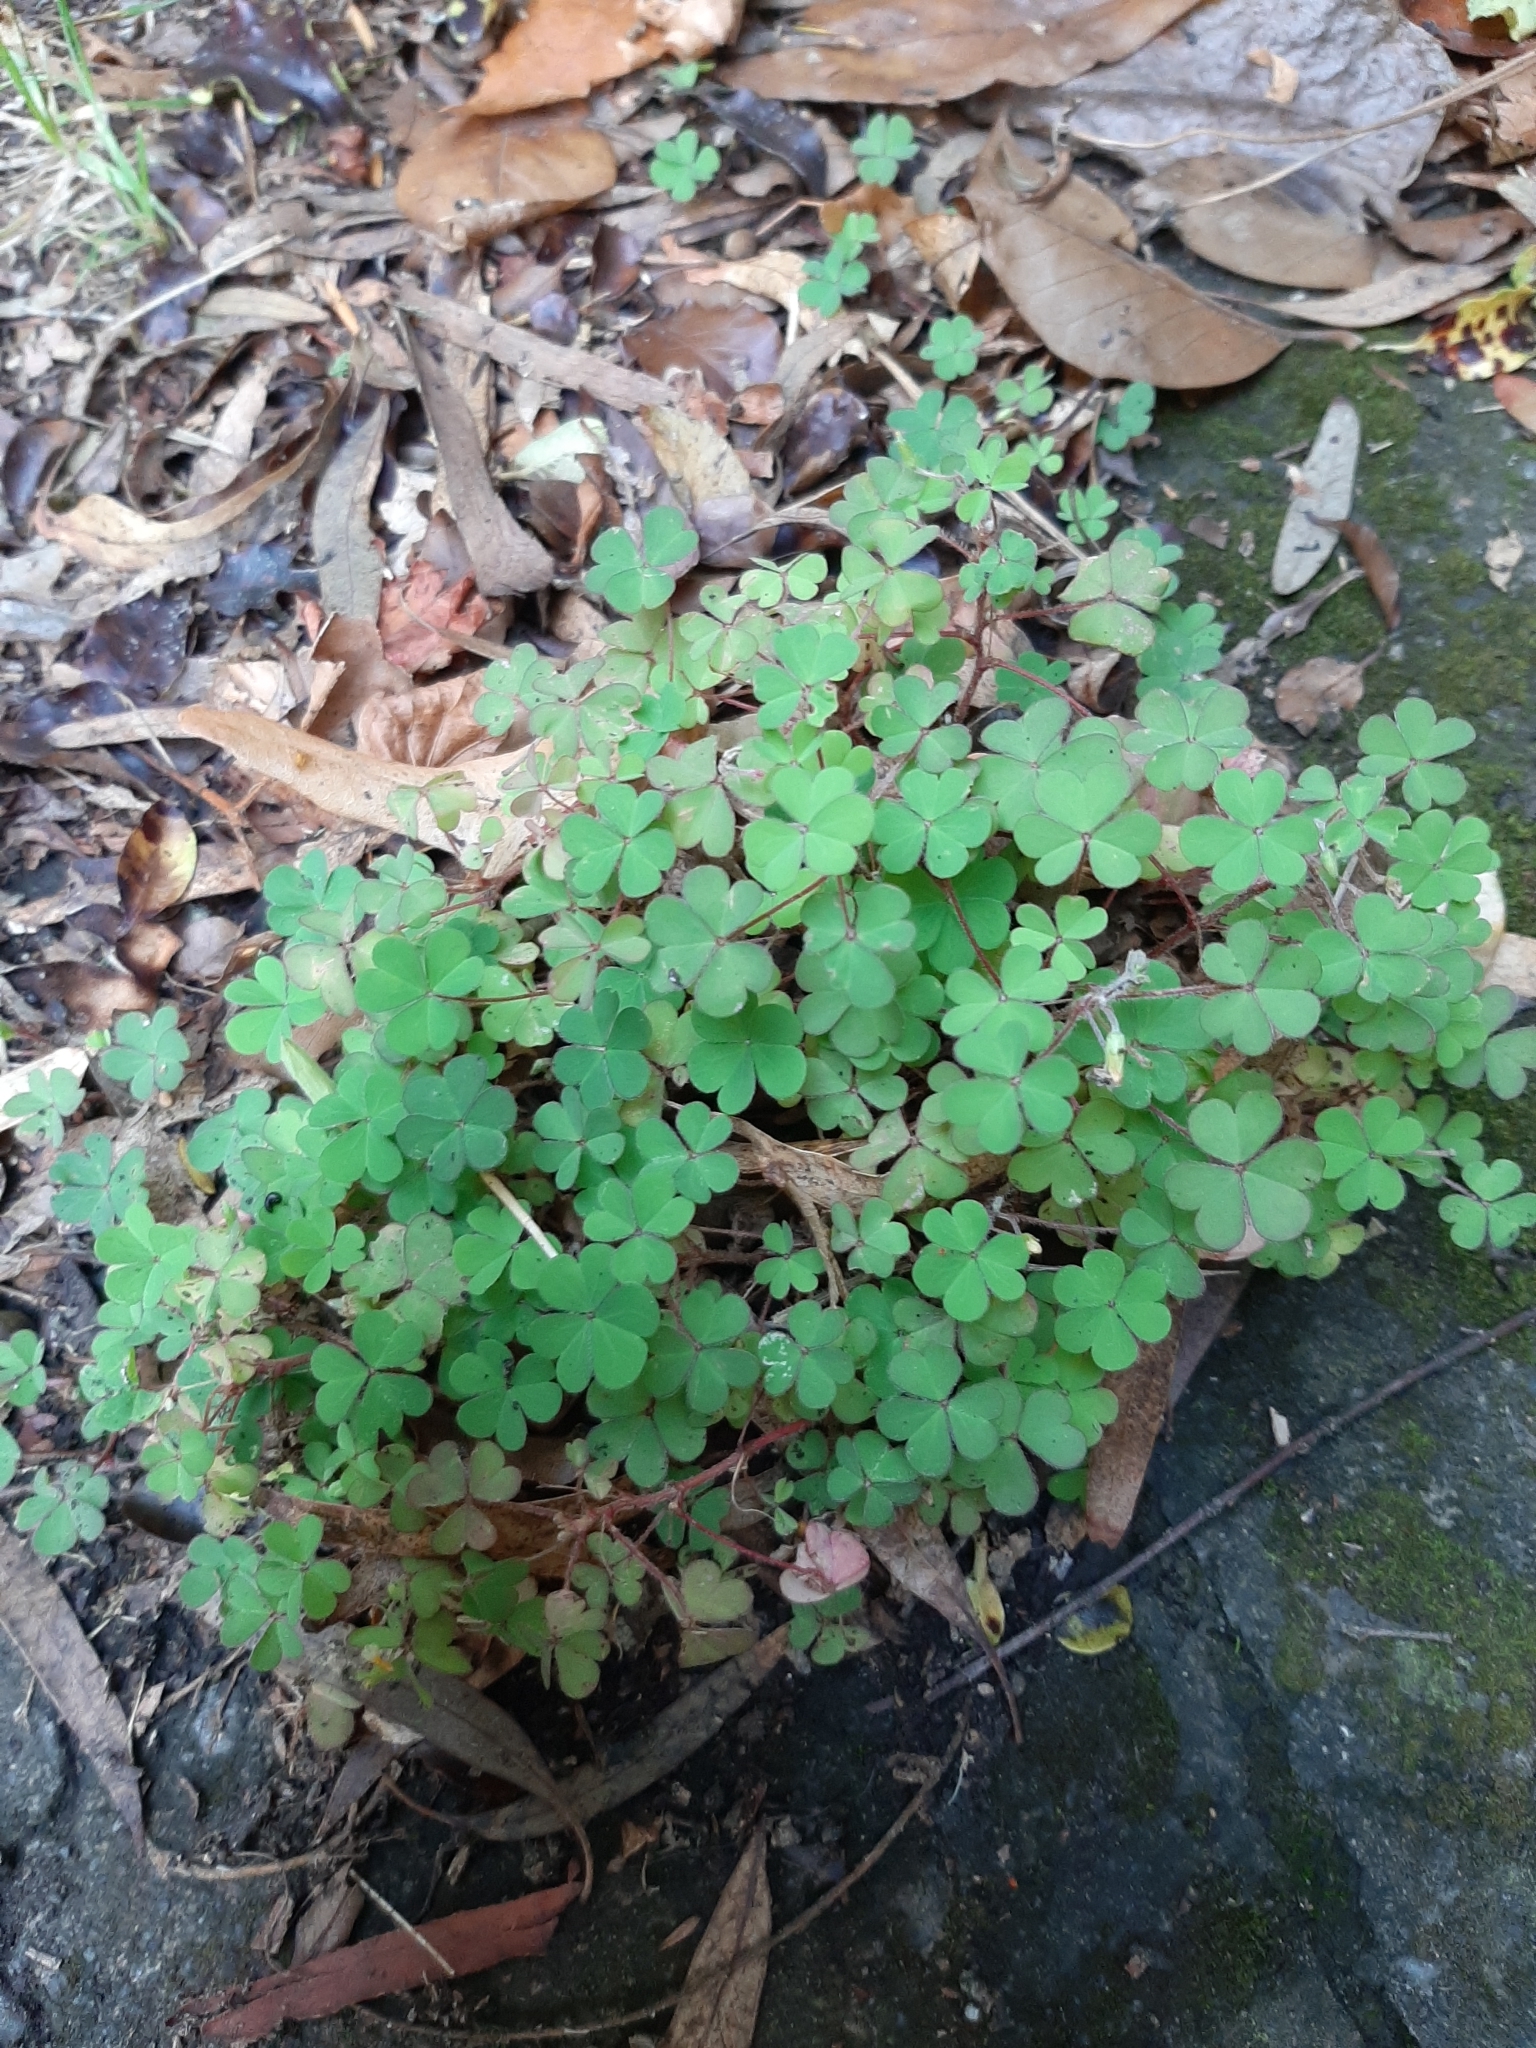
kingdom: Plantae
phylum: Tracheophyta
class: Magnoliopsida
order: Oxalidales
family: Oxalidaceae
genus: Oxalis
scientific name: Oxalis corniculata
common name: Procumbent yellow-sorrel
